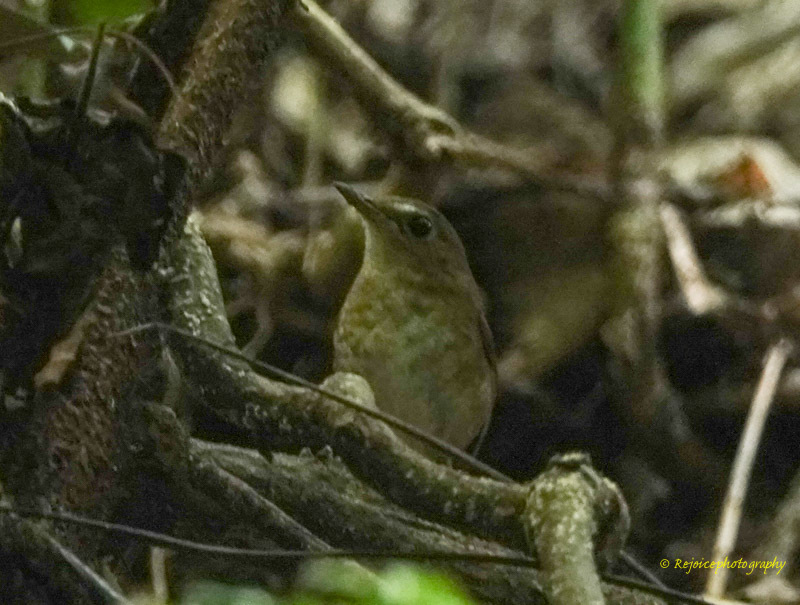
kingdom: Animalia
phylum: Chordata
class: Aves
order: Passeriformes
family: Muscicapidae
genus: Brachypteryx
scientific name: Brachypteryx leucophris
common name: Lesser shortwing
